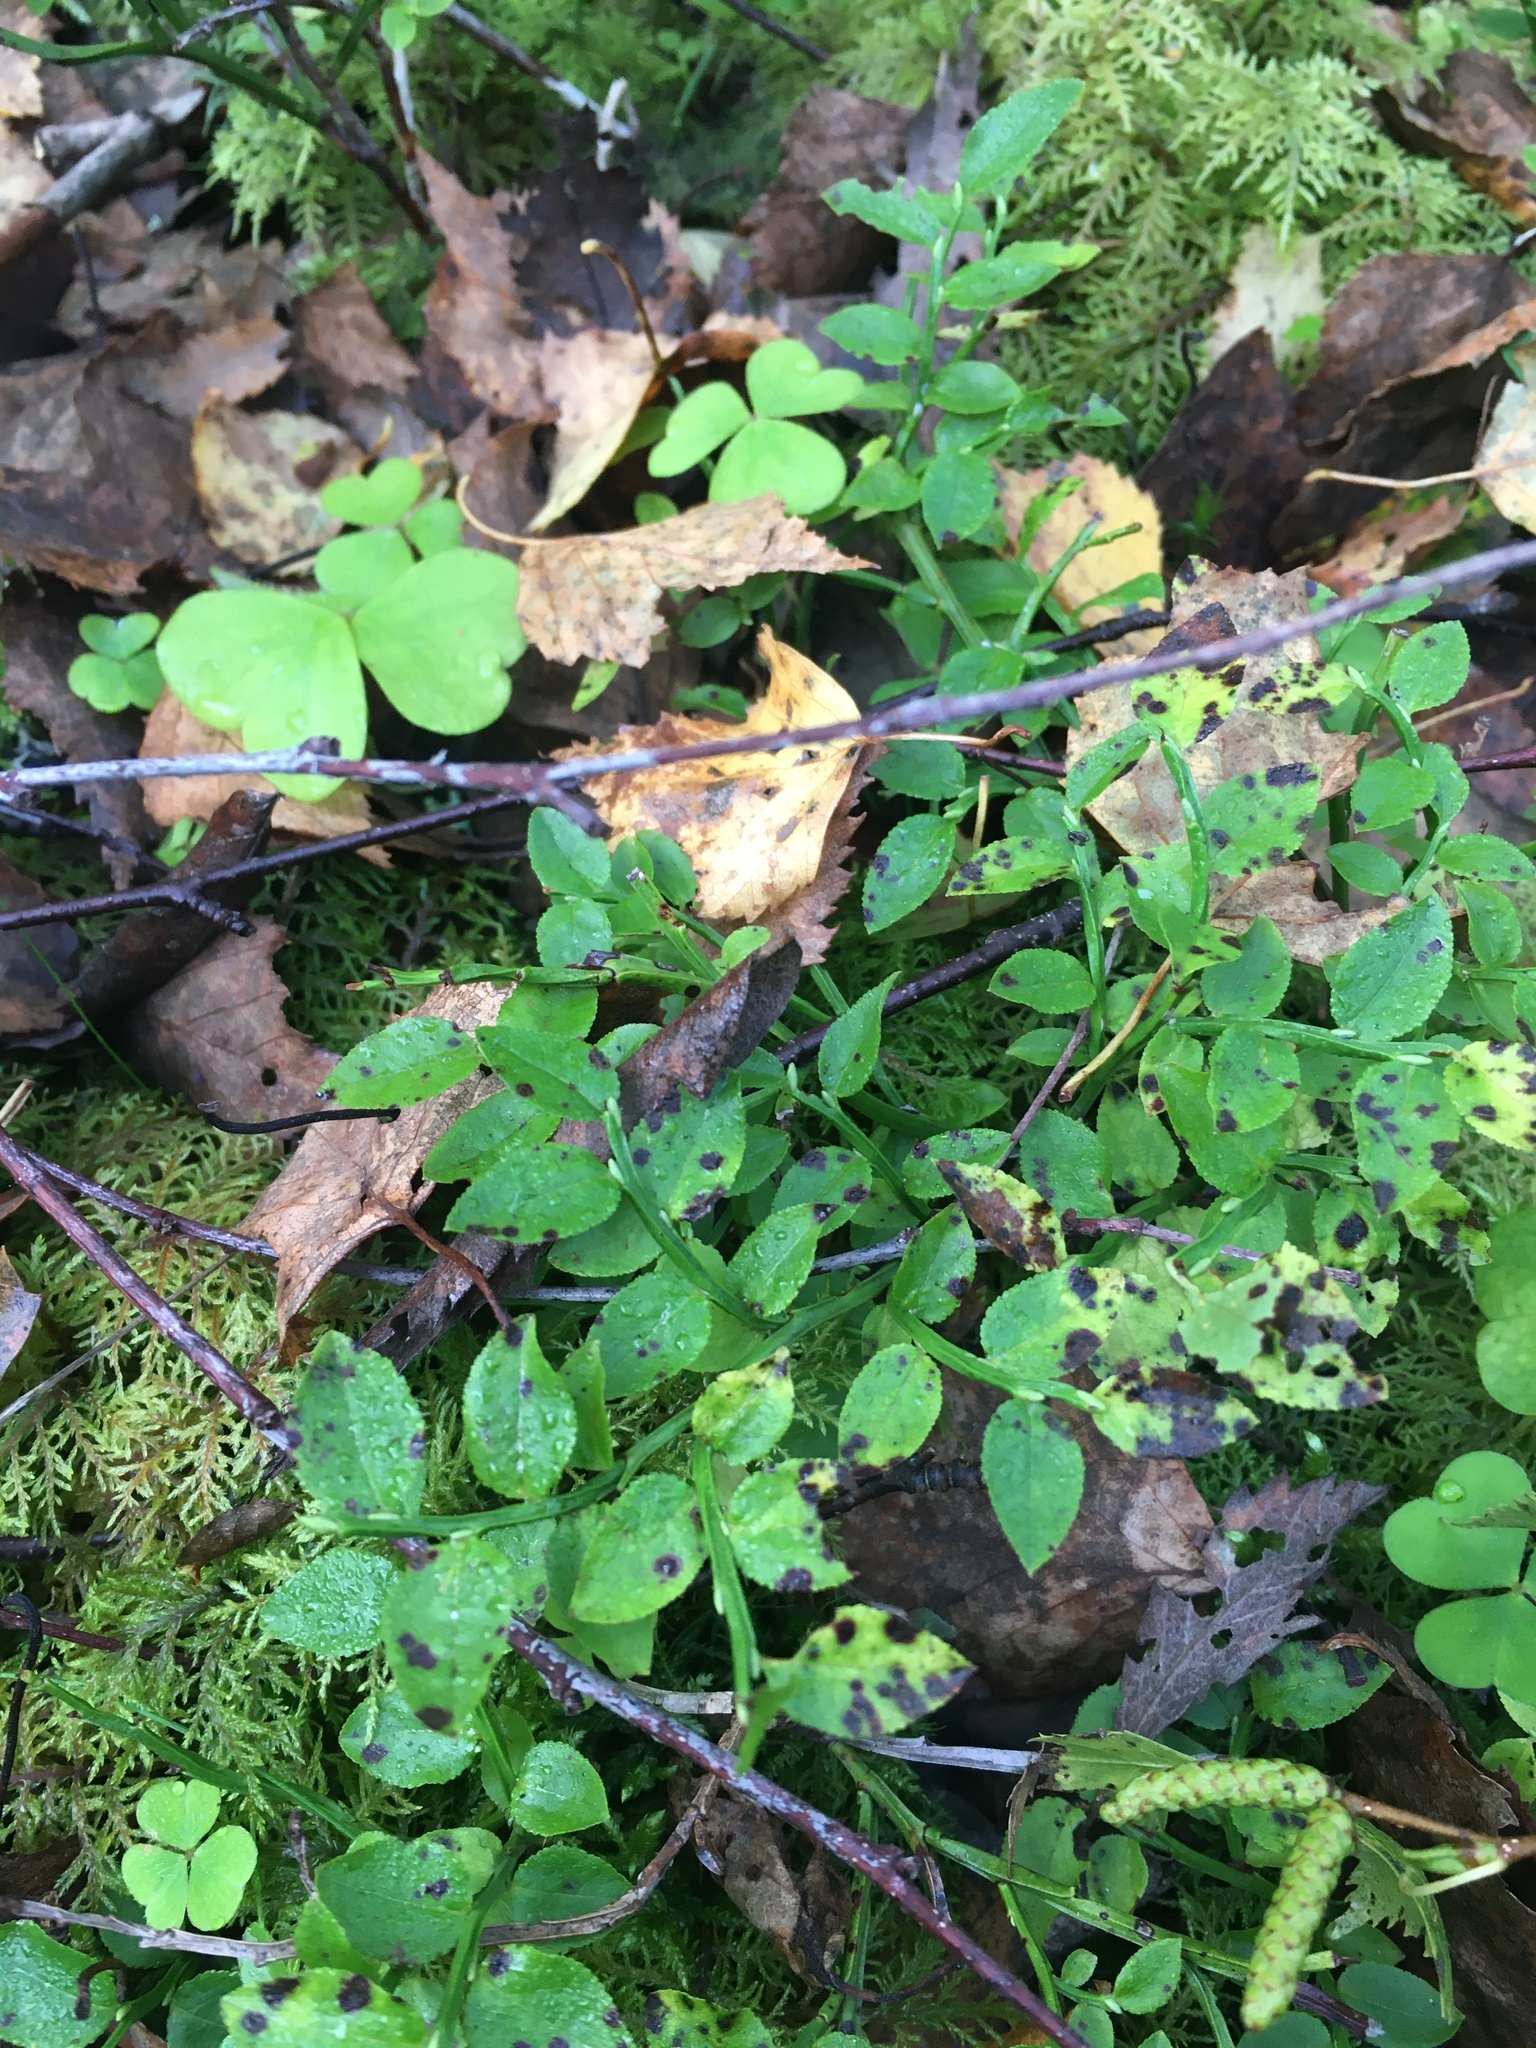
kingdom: Plantae
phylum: Tracheophyta
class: Magnoliopsida
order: Ericales
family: Ericaceae
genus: Vaccinium
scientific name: Vaccinium myrtillus
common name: Bilberry
